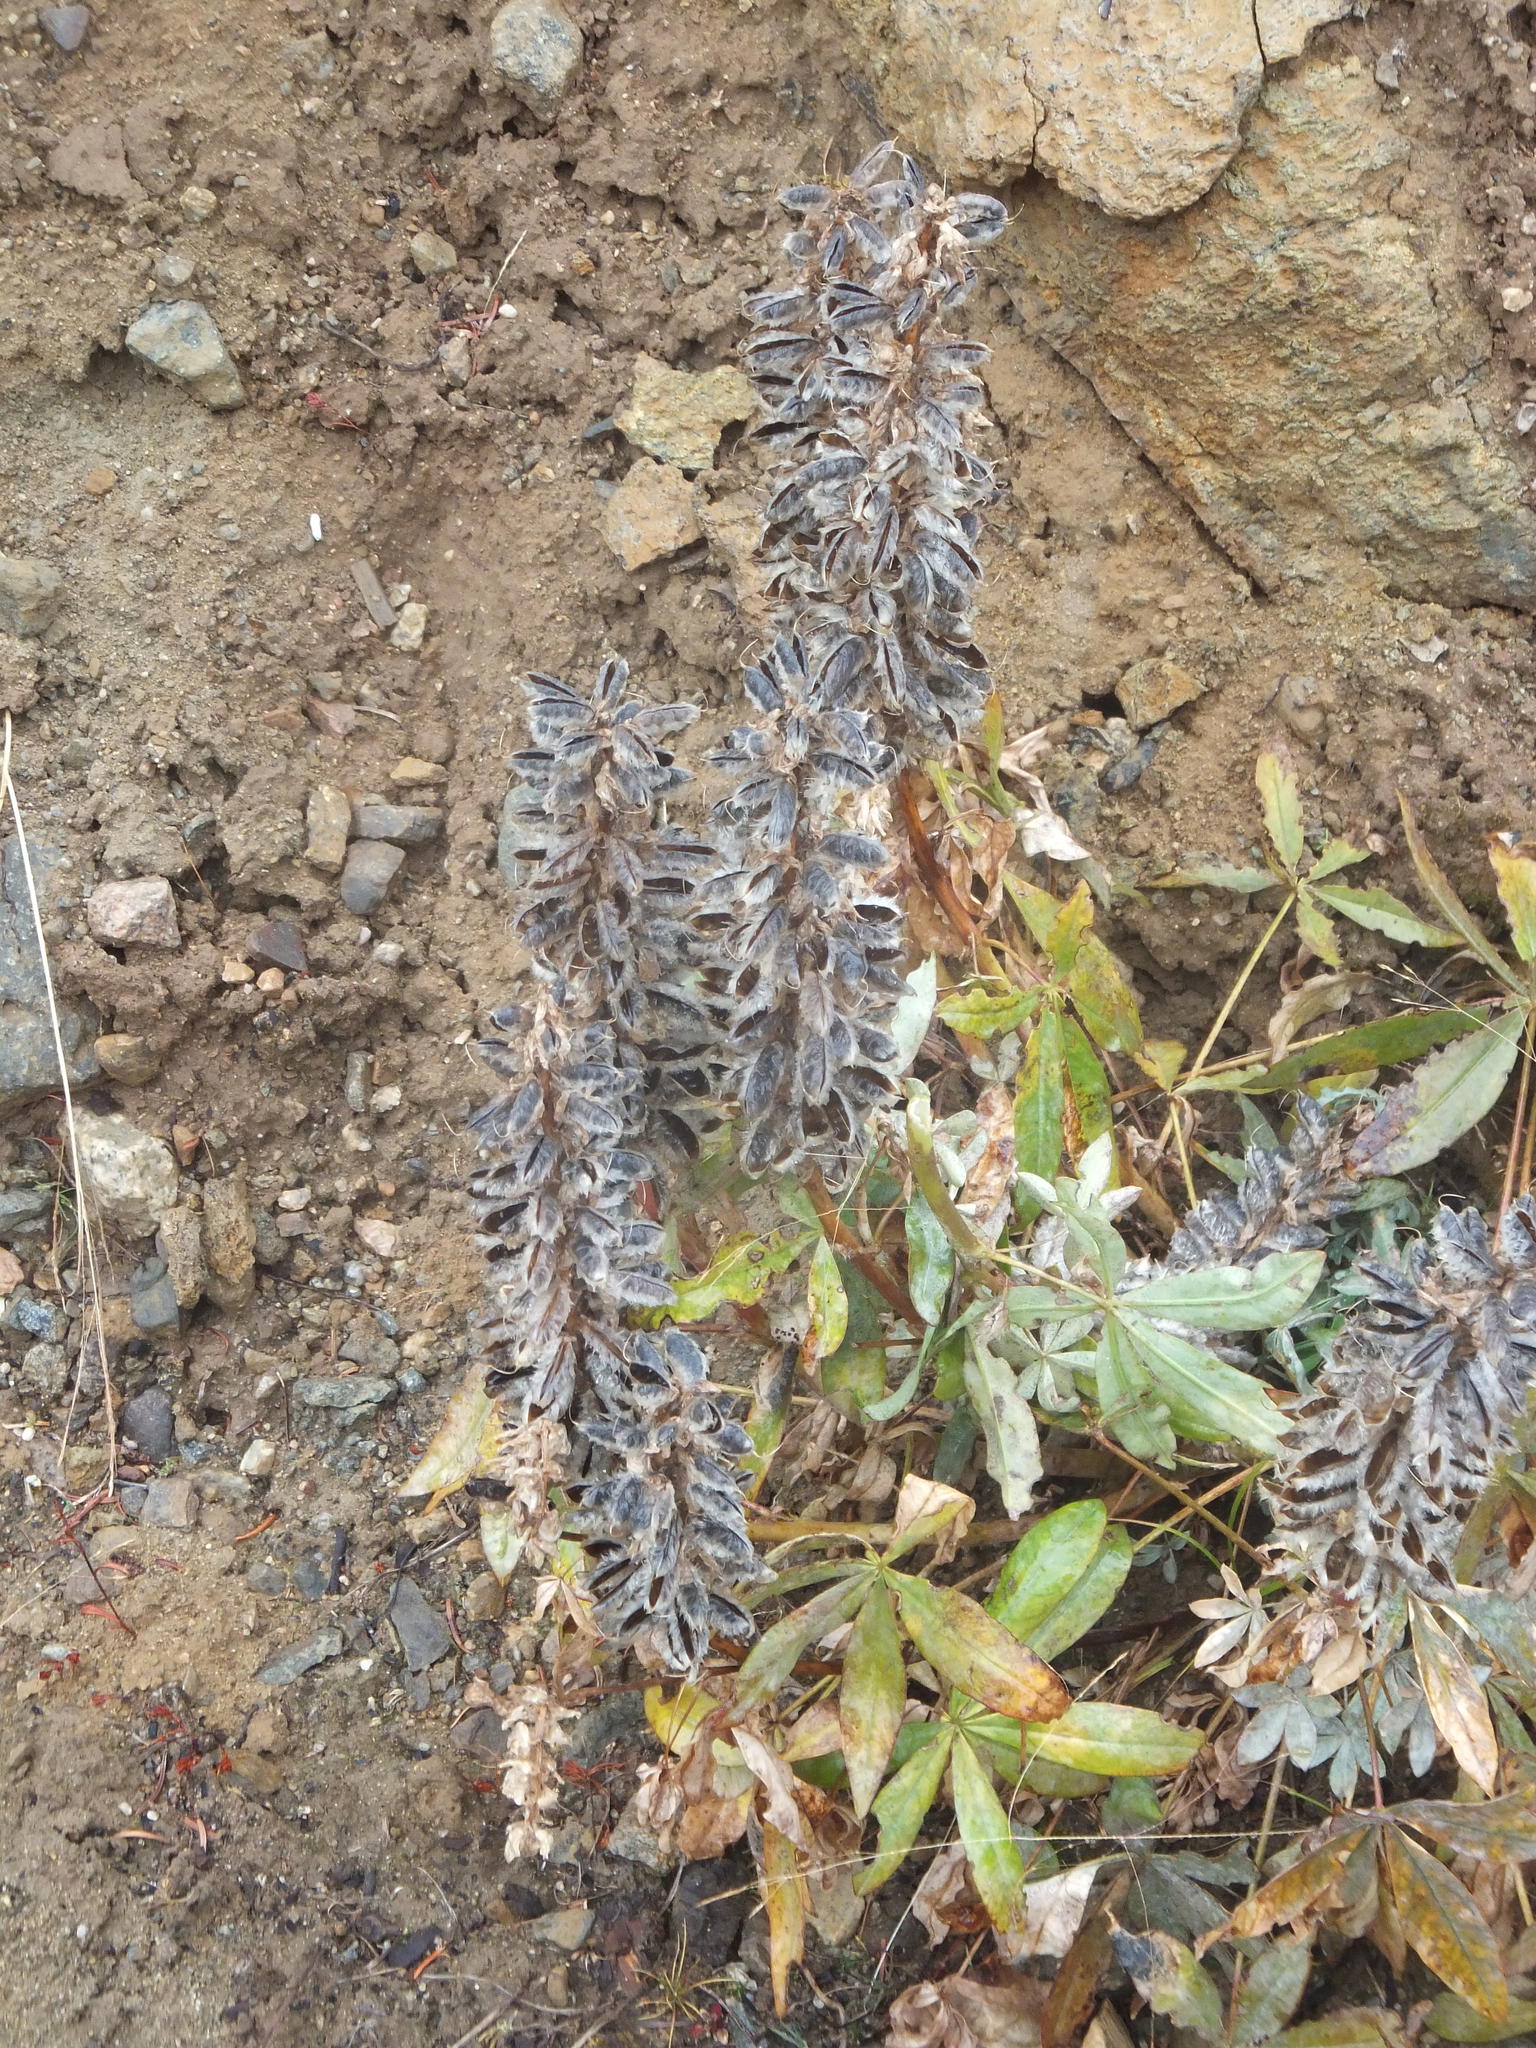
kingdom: Plantae
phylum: Tracheophyta
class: Magnoliopsida
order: Fabales
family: Fabaceae
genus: Lupinus
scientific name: Lupinus burkei
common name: Largeleaf lupine
